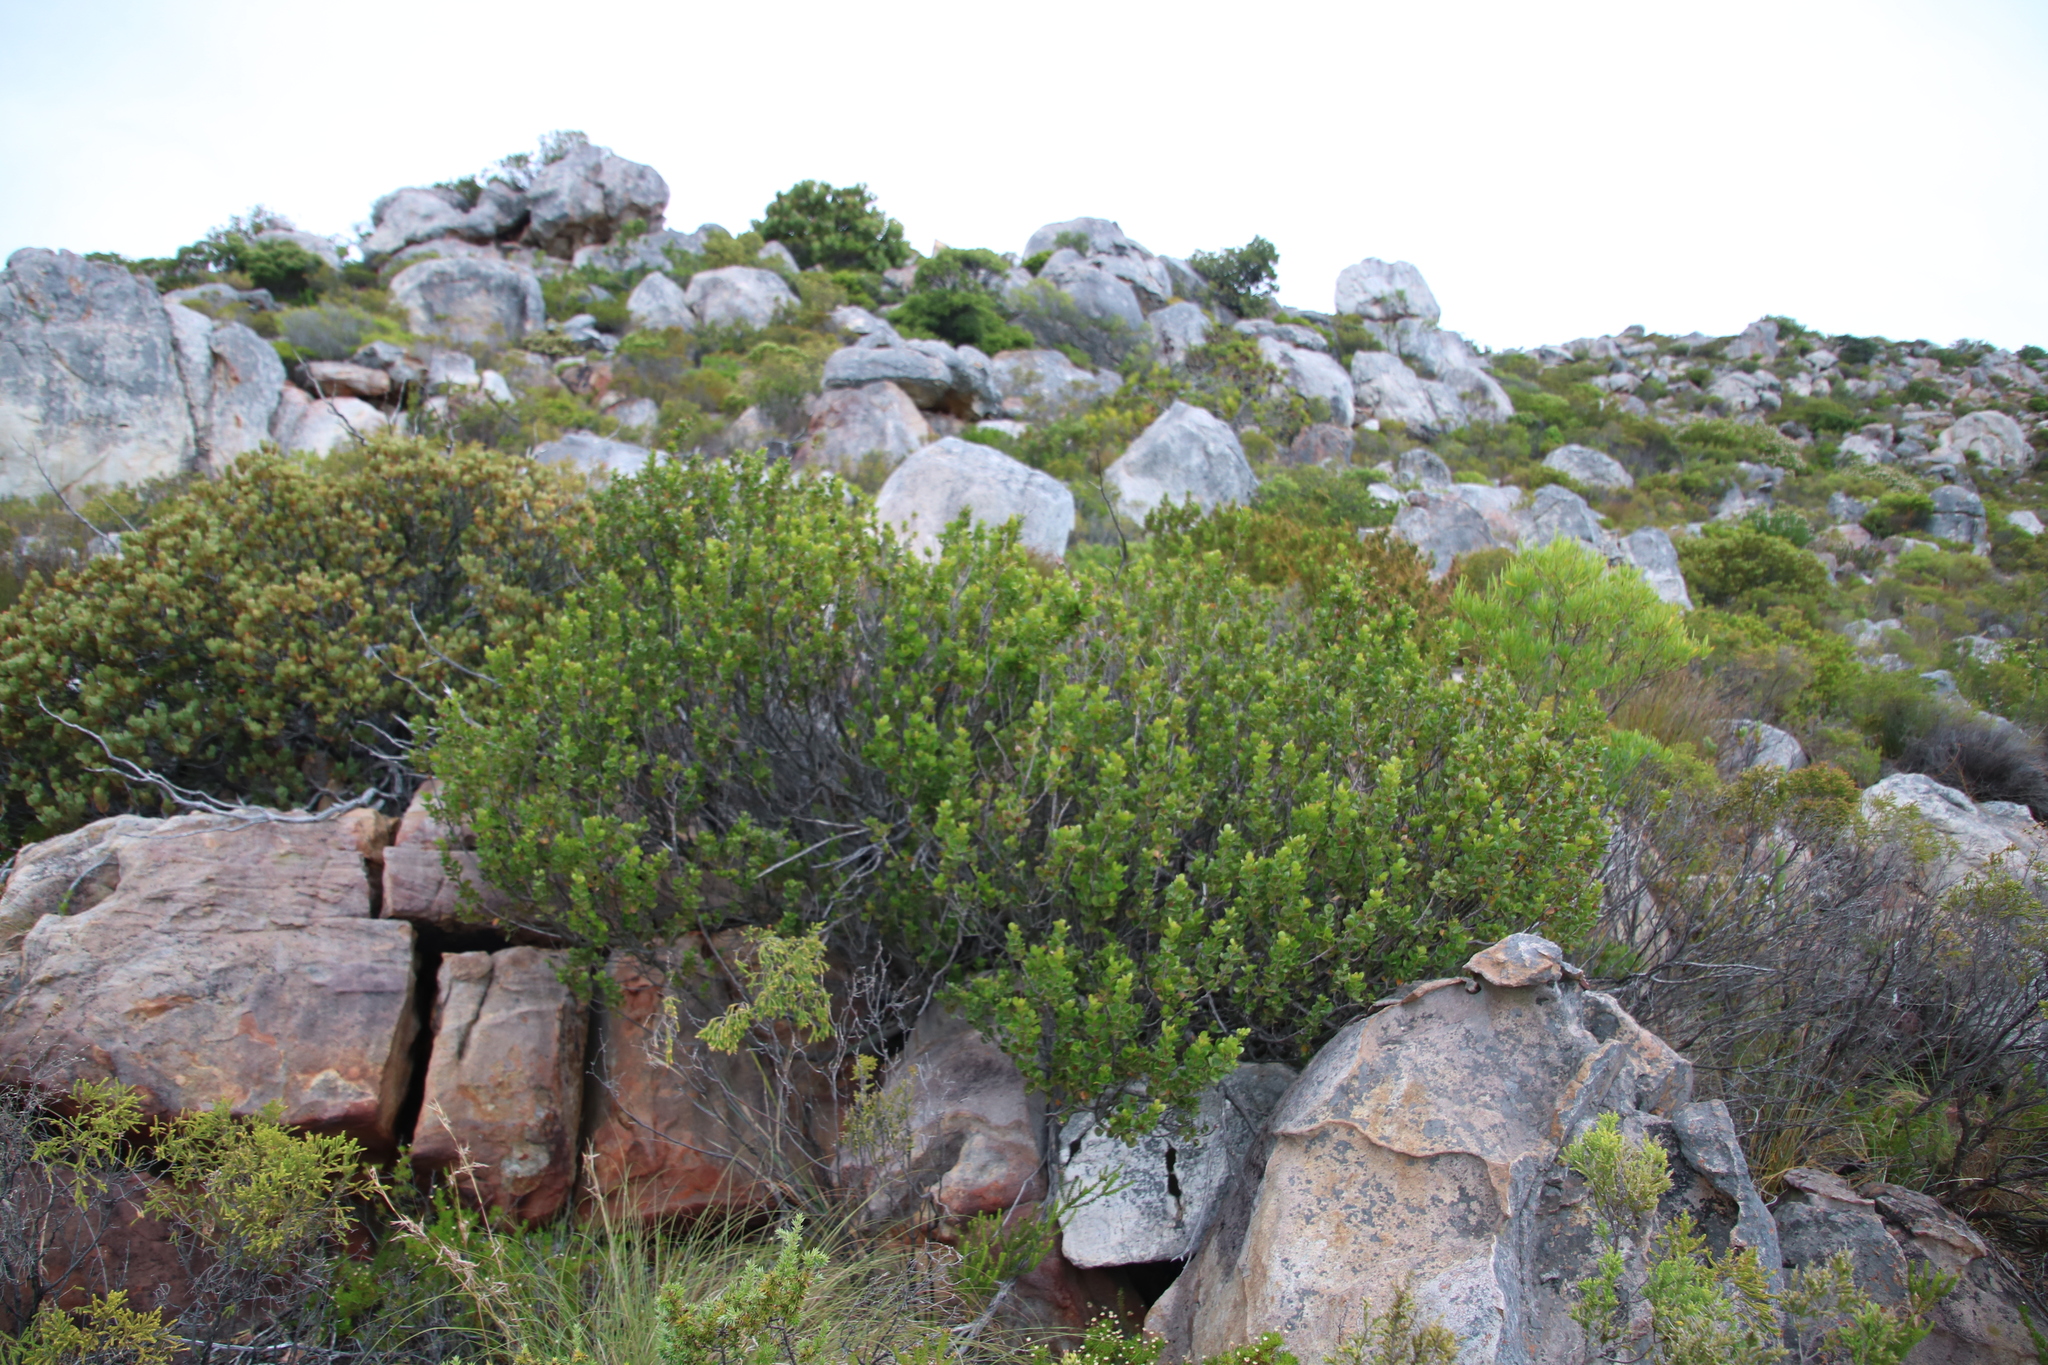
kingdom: Plantae
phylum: Tracheophyta
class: Magnoliopsida
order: Sapindales
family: Anacardiaceae
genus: Searsia
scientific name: Searsia lucida
